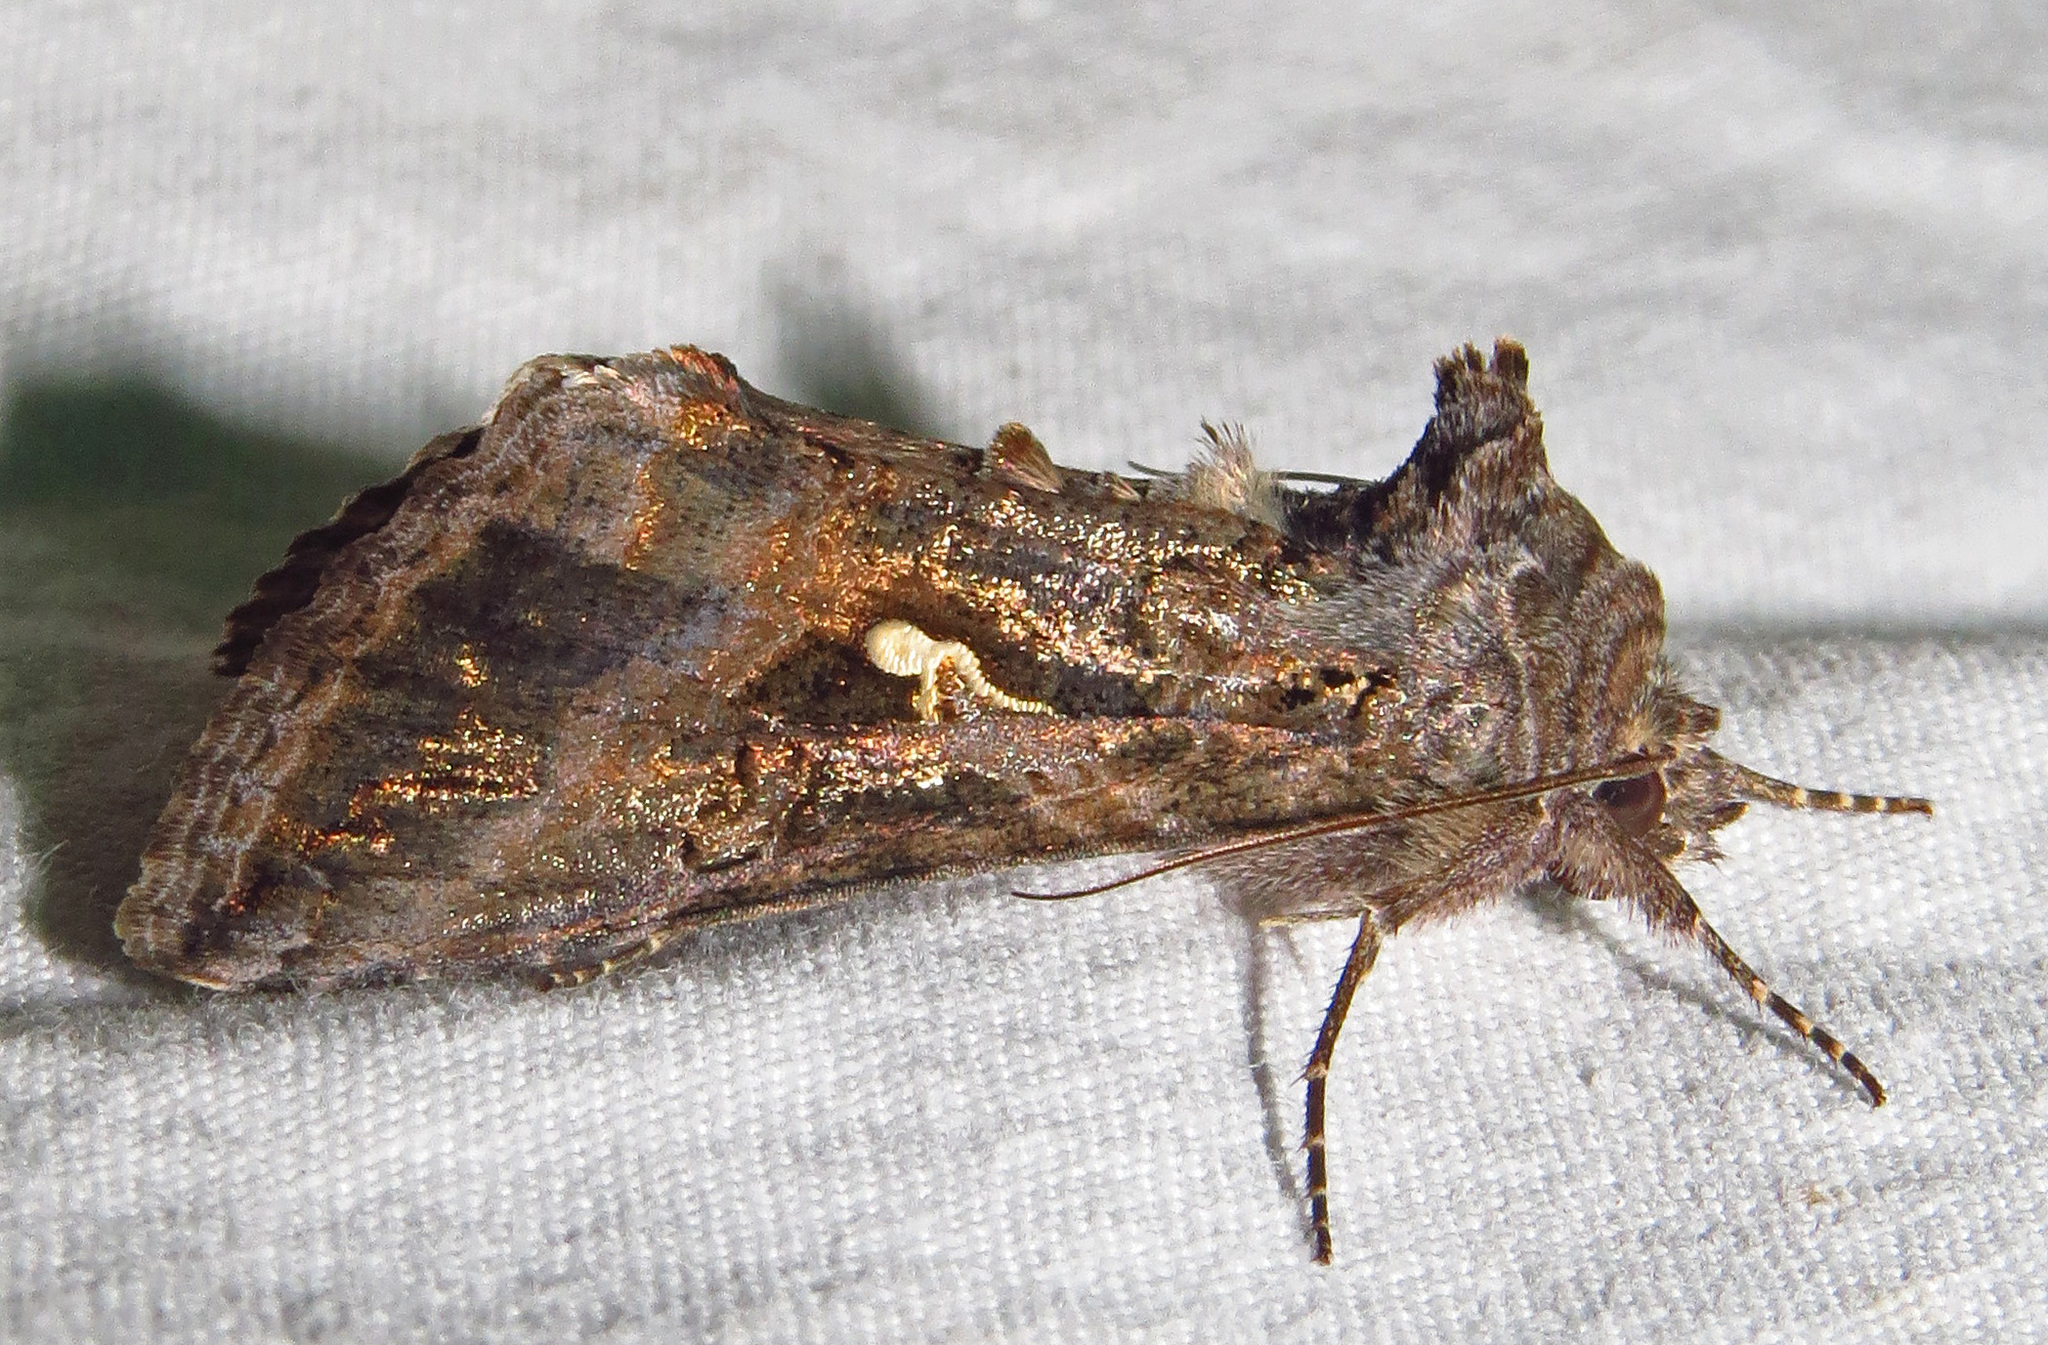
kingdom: Animalia
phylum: Arthropoda
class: Insecta
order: Lepidoptera
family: Noctuidae
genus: Chrysodeixis
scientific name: Chrysodeixis includens
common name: Cutworm moth
